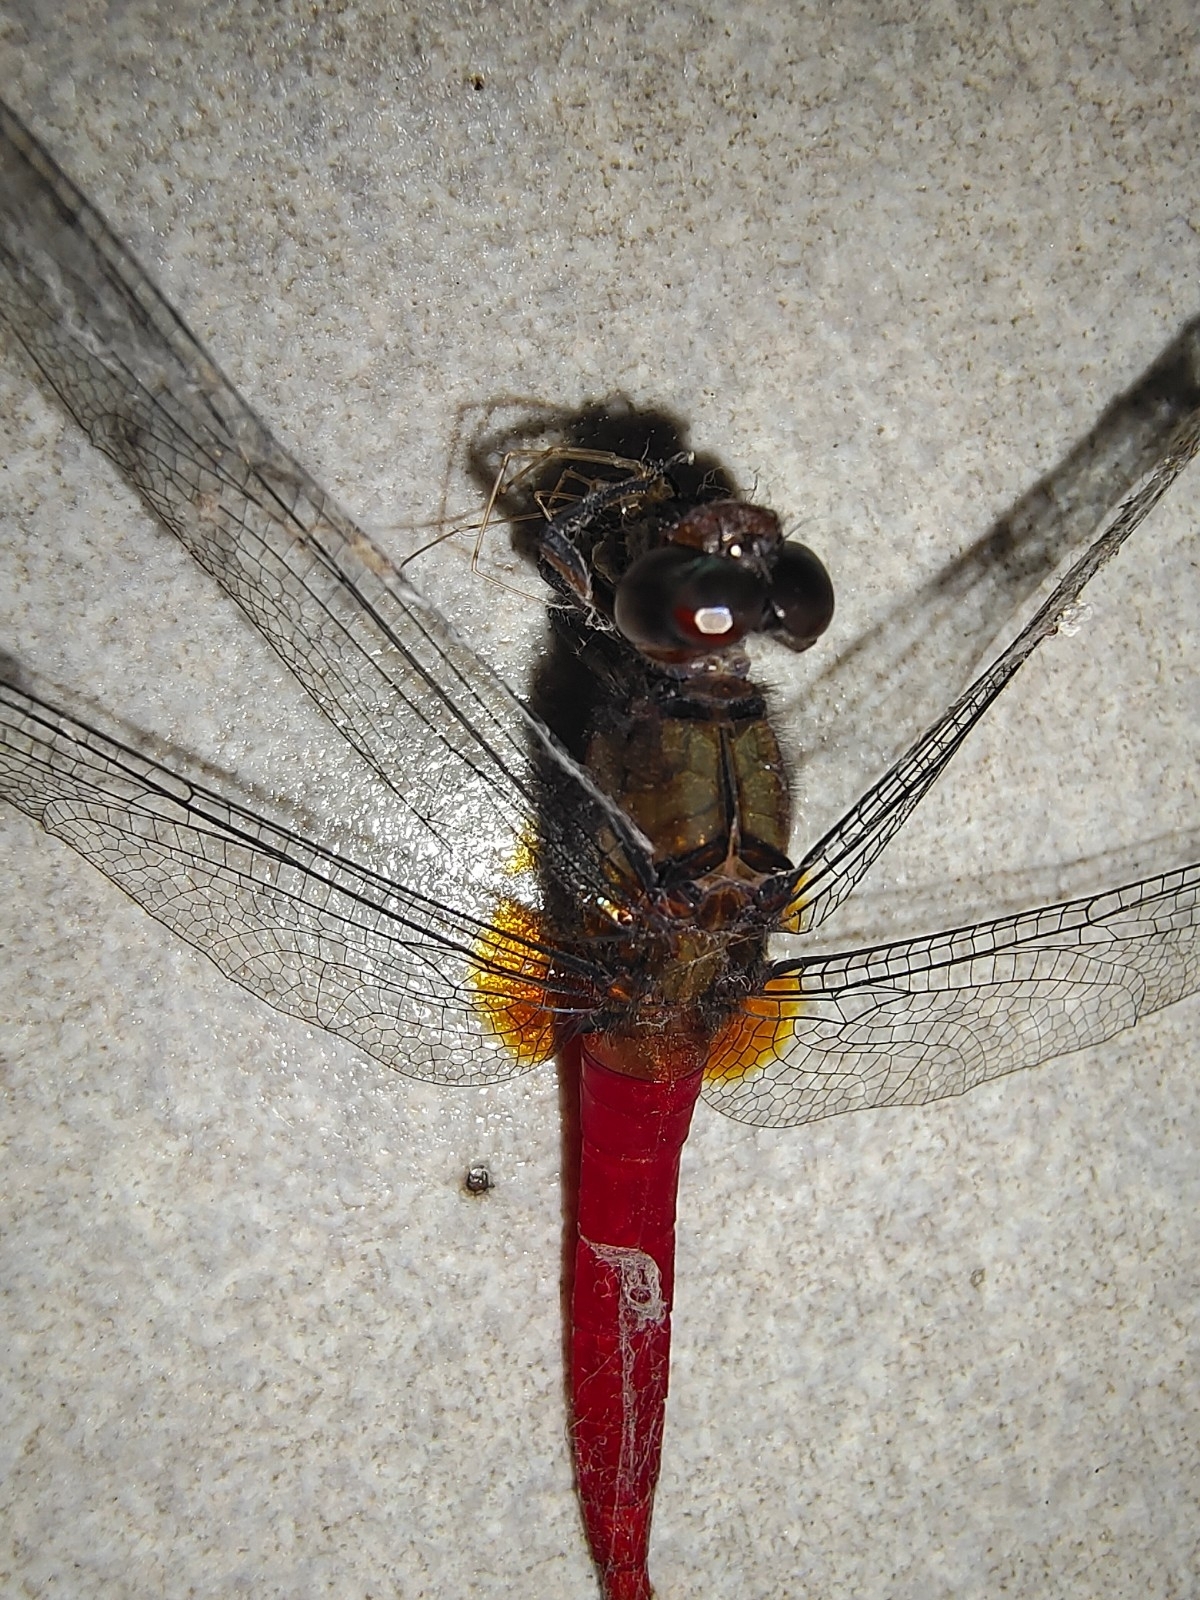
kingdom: Animalia
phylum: Arthropoda
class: Insecta
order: Odonata
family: Libellulidae
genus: Orthetrum
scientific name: Orthetrum chrysis
